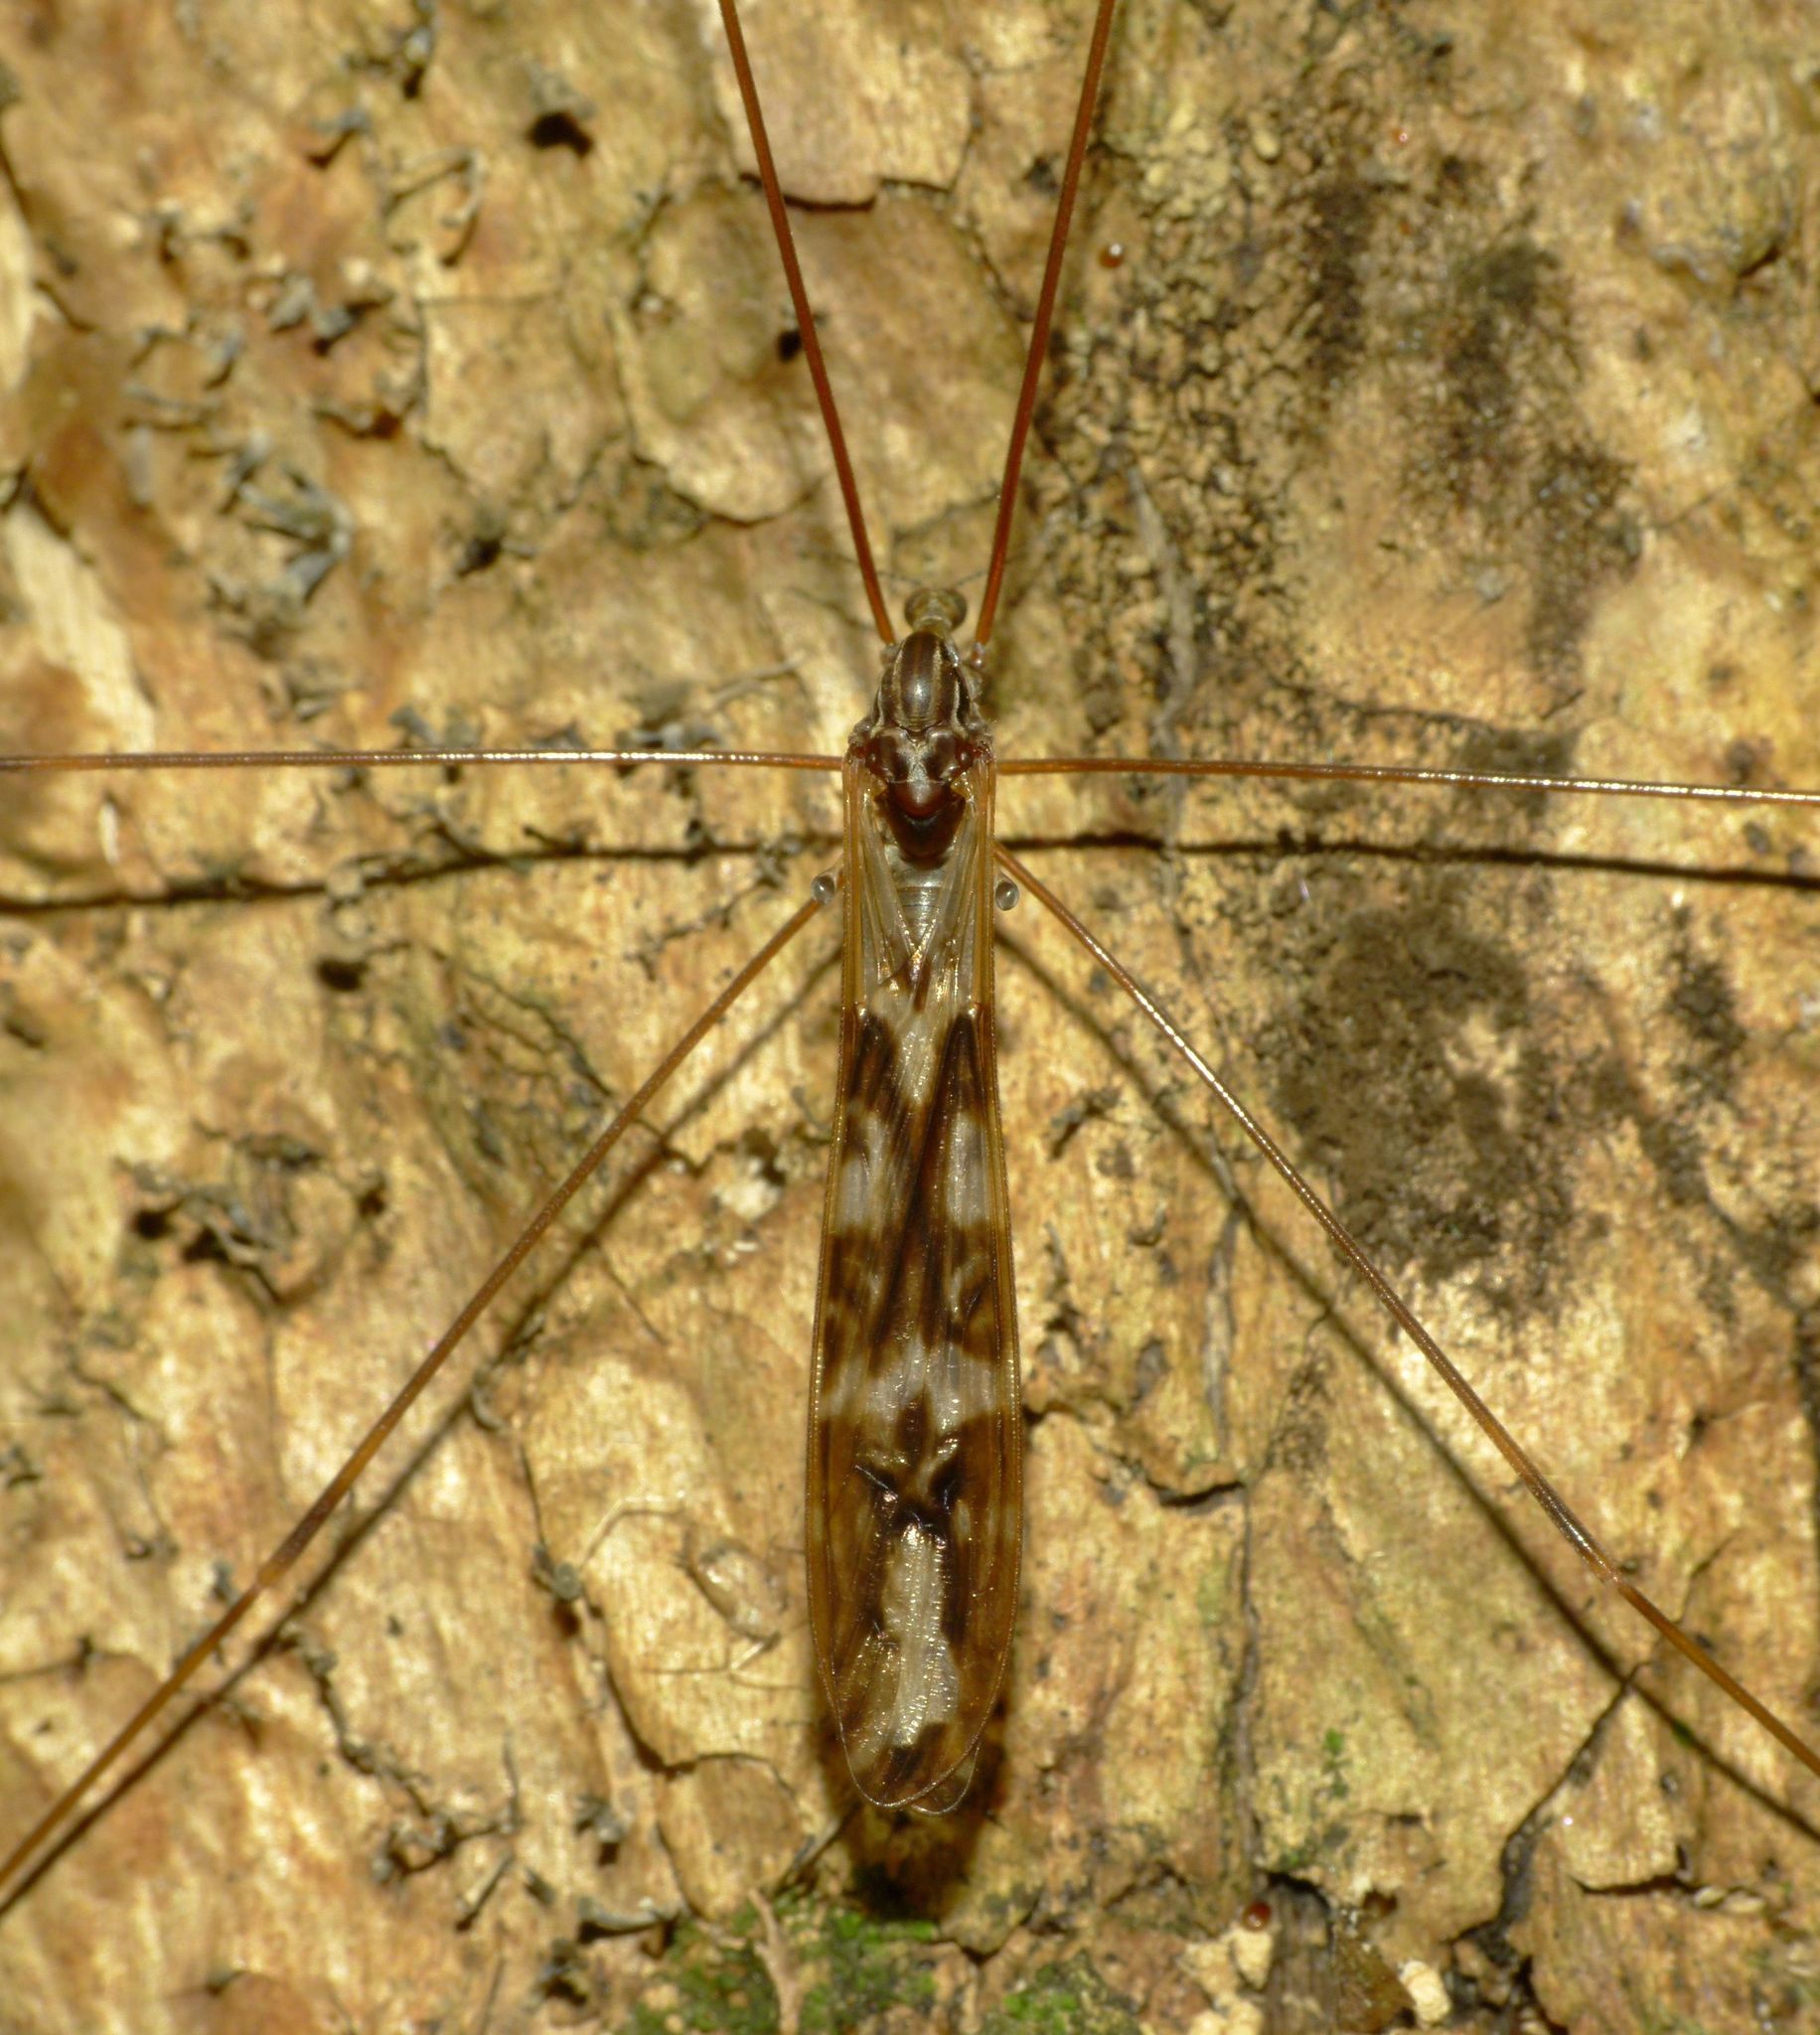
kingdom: Animalia
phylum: Arthropoda
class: Insecta
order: Diptera
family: Limoniidae
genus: Discobola
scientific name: Discobola dohrni
